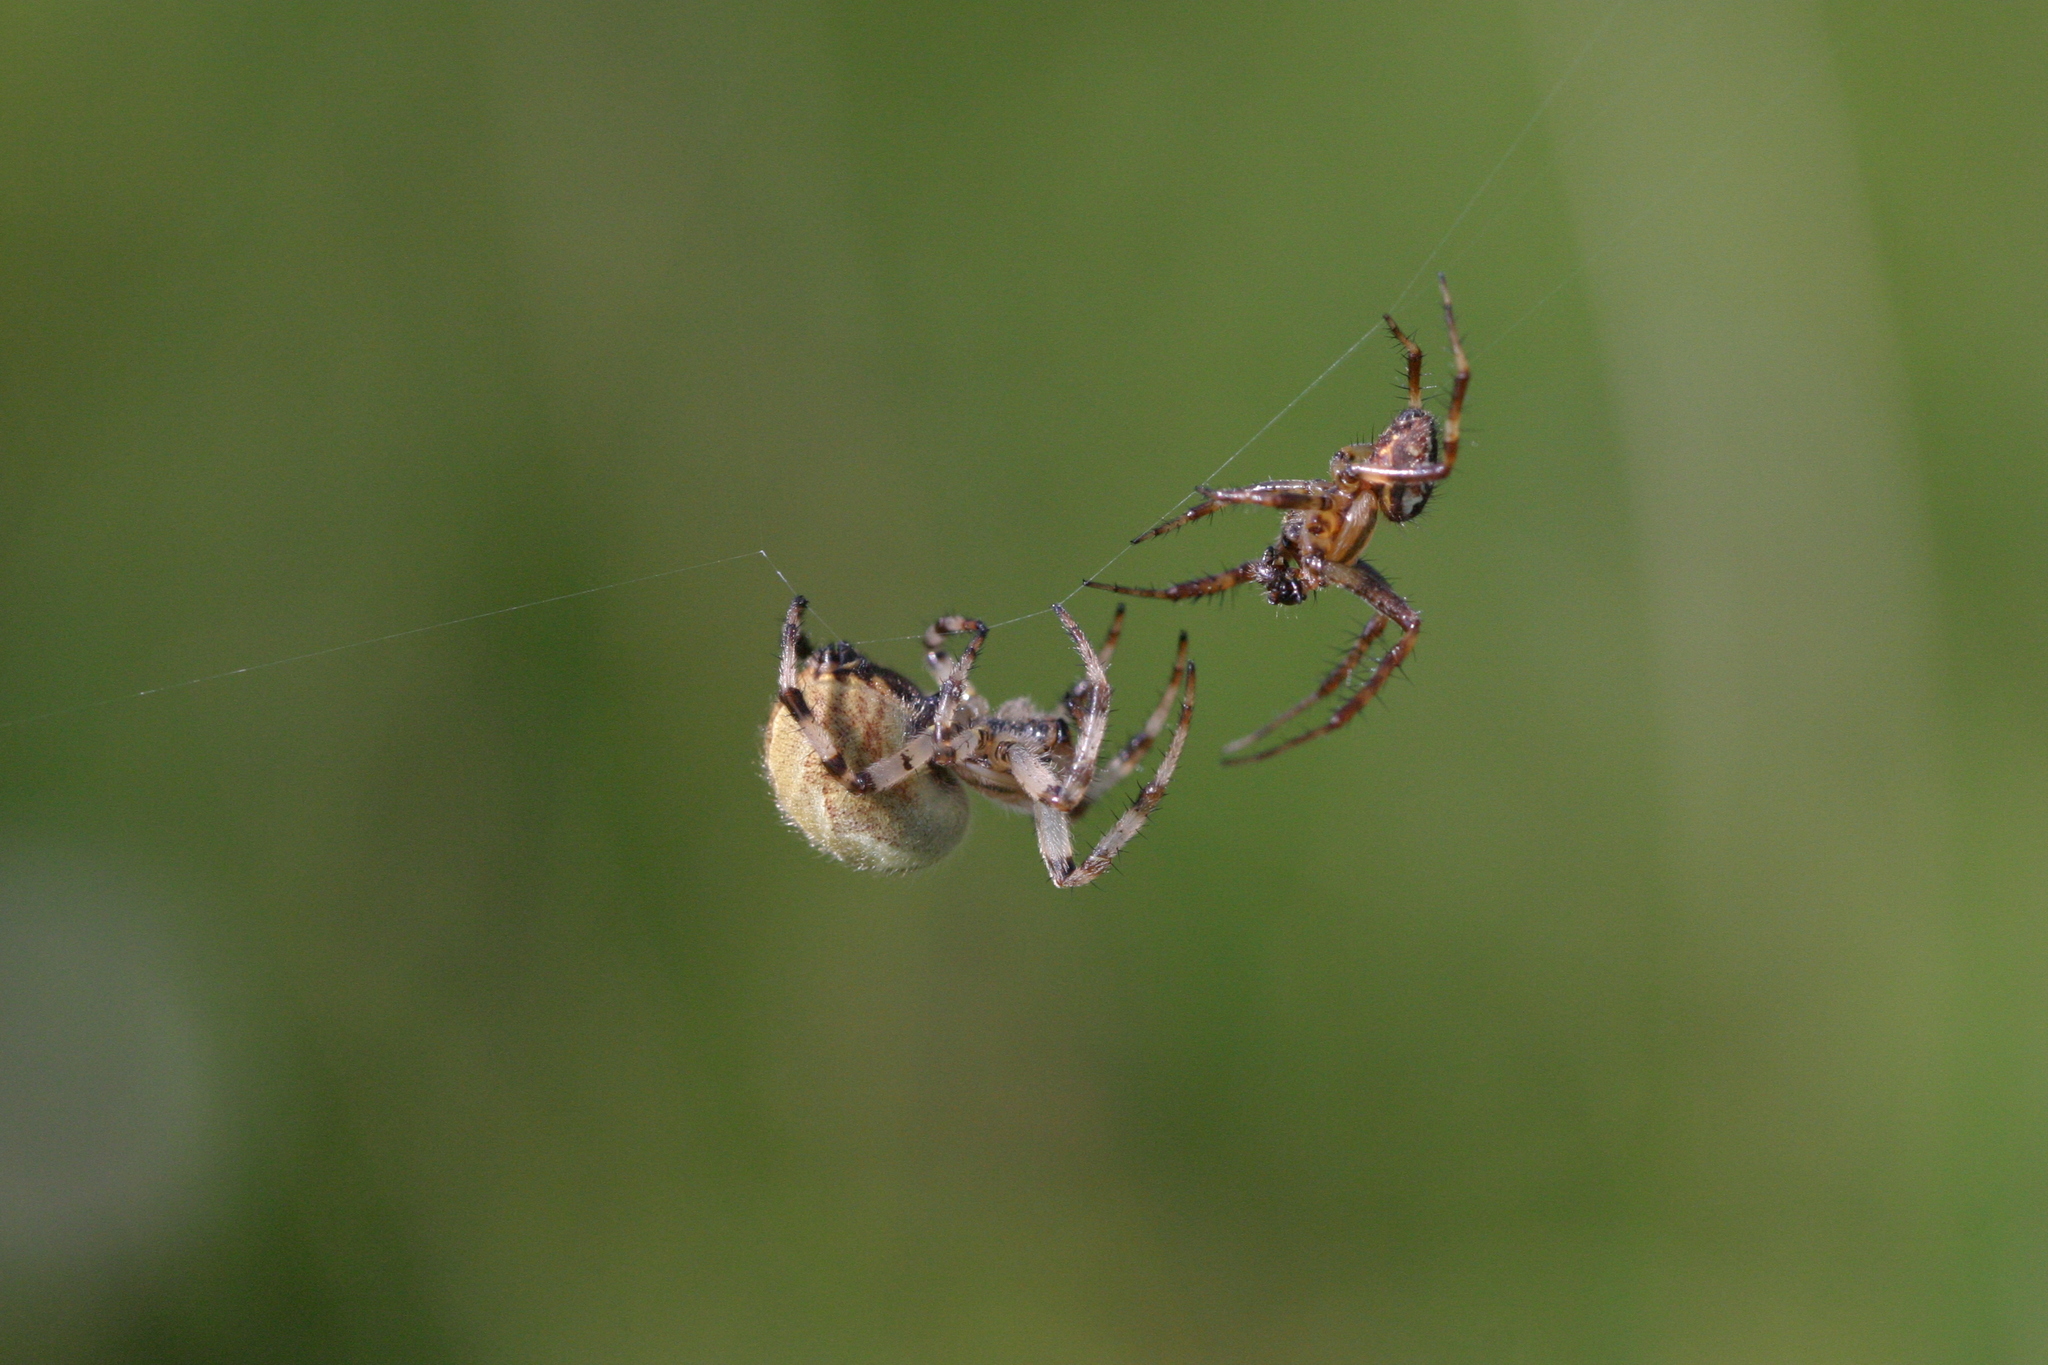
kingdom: Animalia
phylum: Arthropoda
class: Arachnida
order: Araneae
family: Araneidae
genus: Araneus
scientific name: Araneus quadratus
